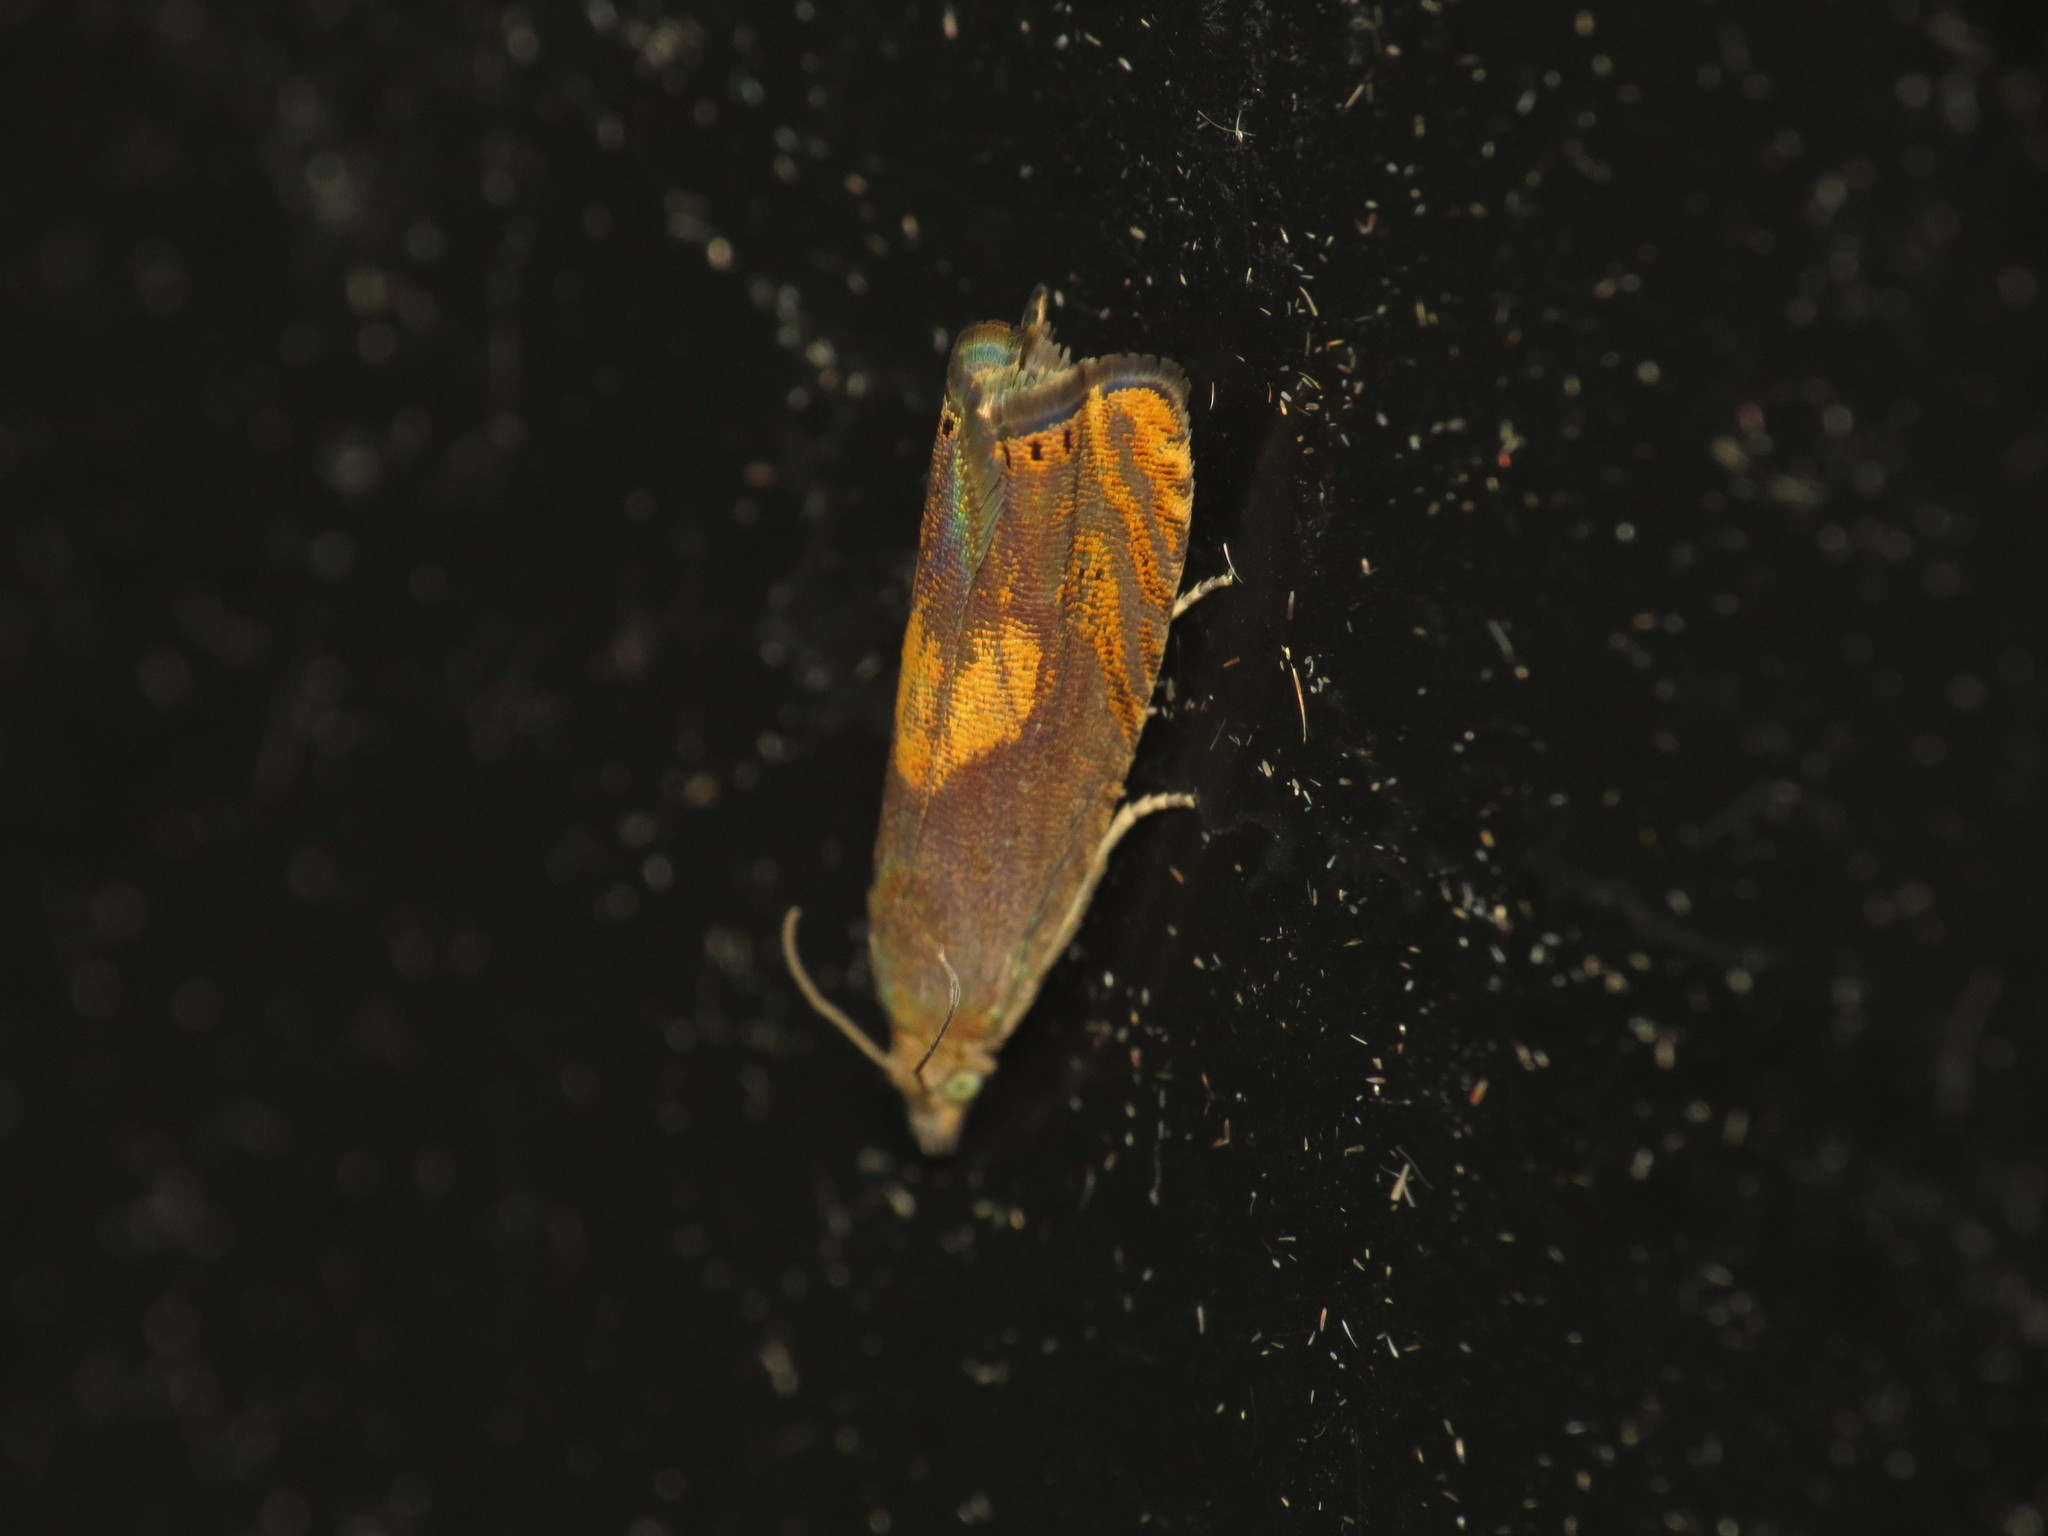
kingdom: Animalia
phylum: Arthropoda
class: Insecta
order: Lepidoptera
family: Tortricidae
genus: Dichrorampha
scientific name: Dichrorampha flavidorsana
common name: Narrow-blotch drill
